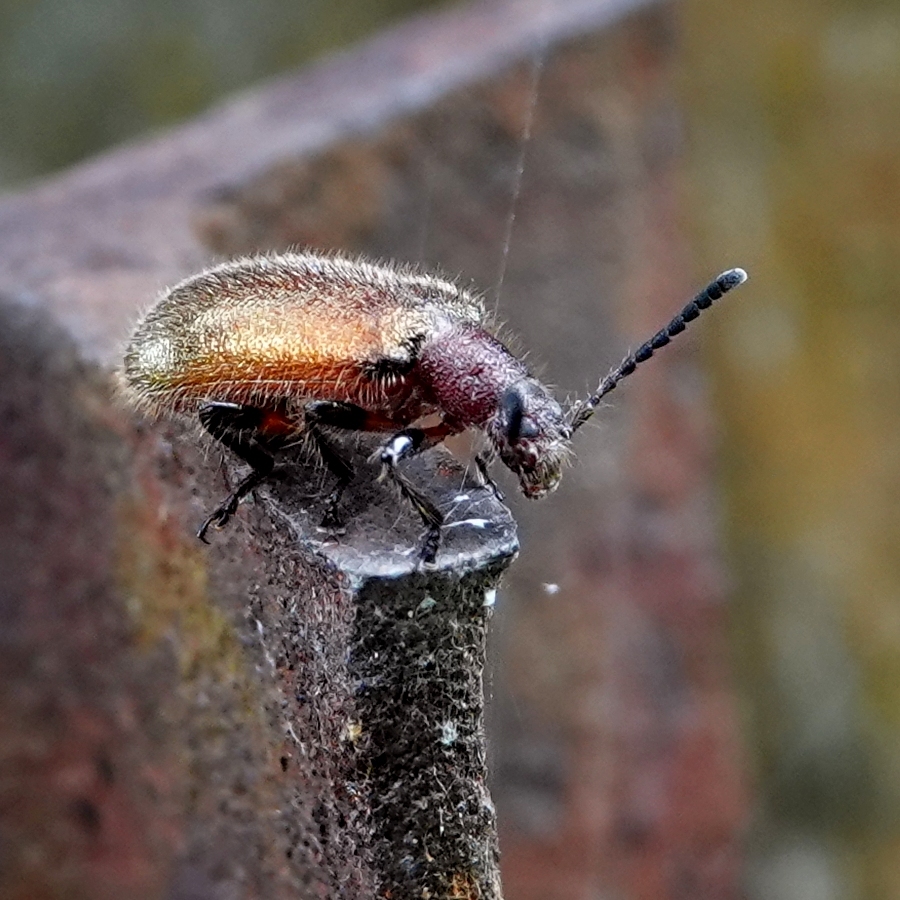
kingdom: Animalia
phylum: Arthropoda
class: Insecta
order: Coleoptera
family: Tenebrionidae
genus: Metriolagria
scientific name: Metriolagria affinis
